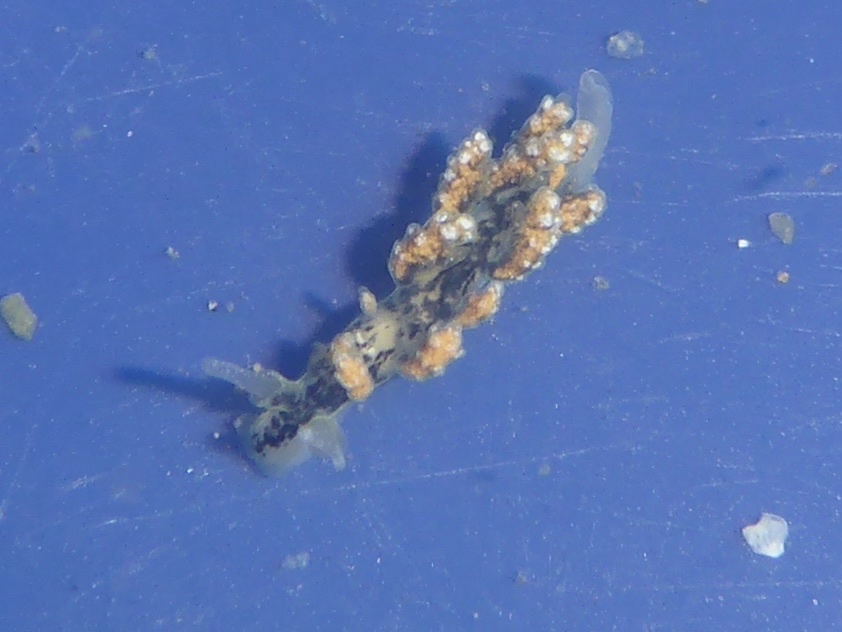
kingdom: Animalia
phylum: Mollusca
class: Gastropoda
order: Nudibranchia
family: Dotidae
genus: Doto
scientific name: Doto kya
